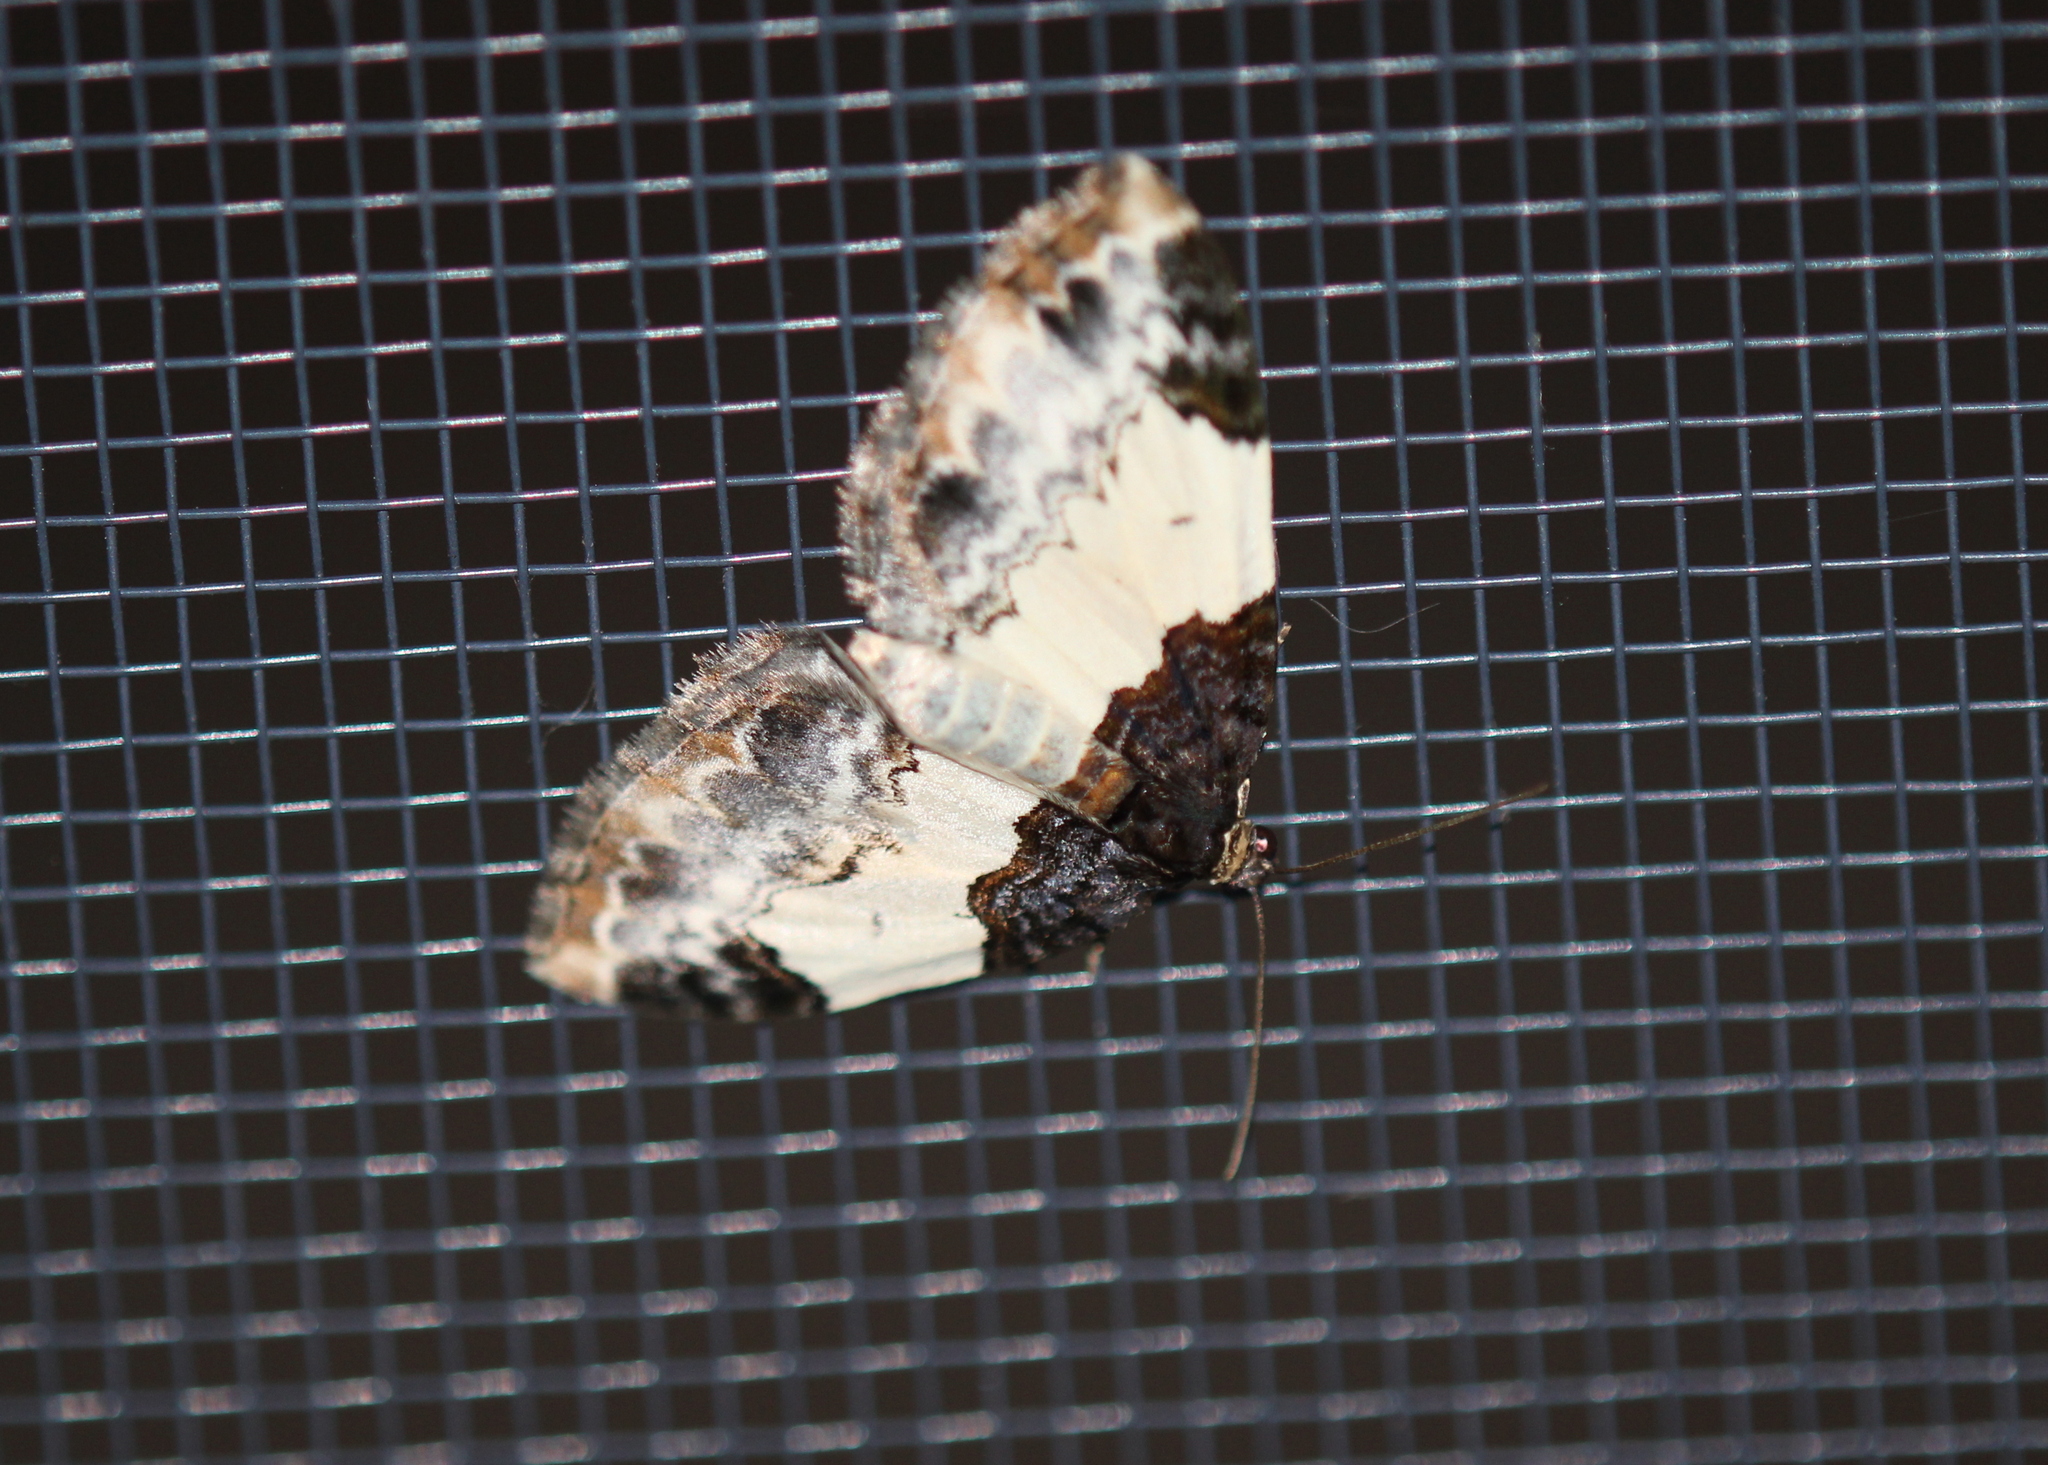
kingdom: Animalia
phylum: Arthropoda
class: Insecta
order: Lepidoptera
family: Geometridae
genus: Mesoleuca
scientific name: Mesoleuca ruficillata
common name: White-ribboned carpet moth
